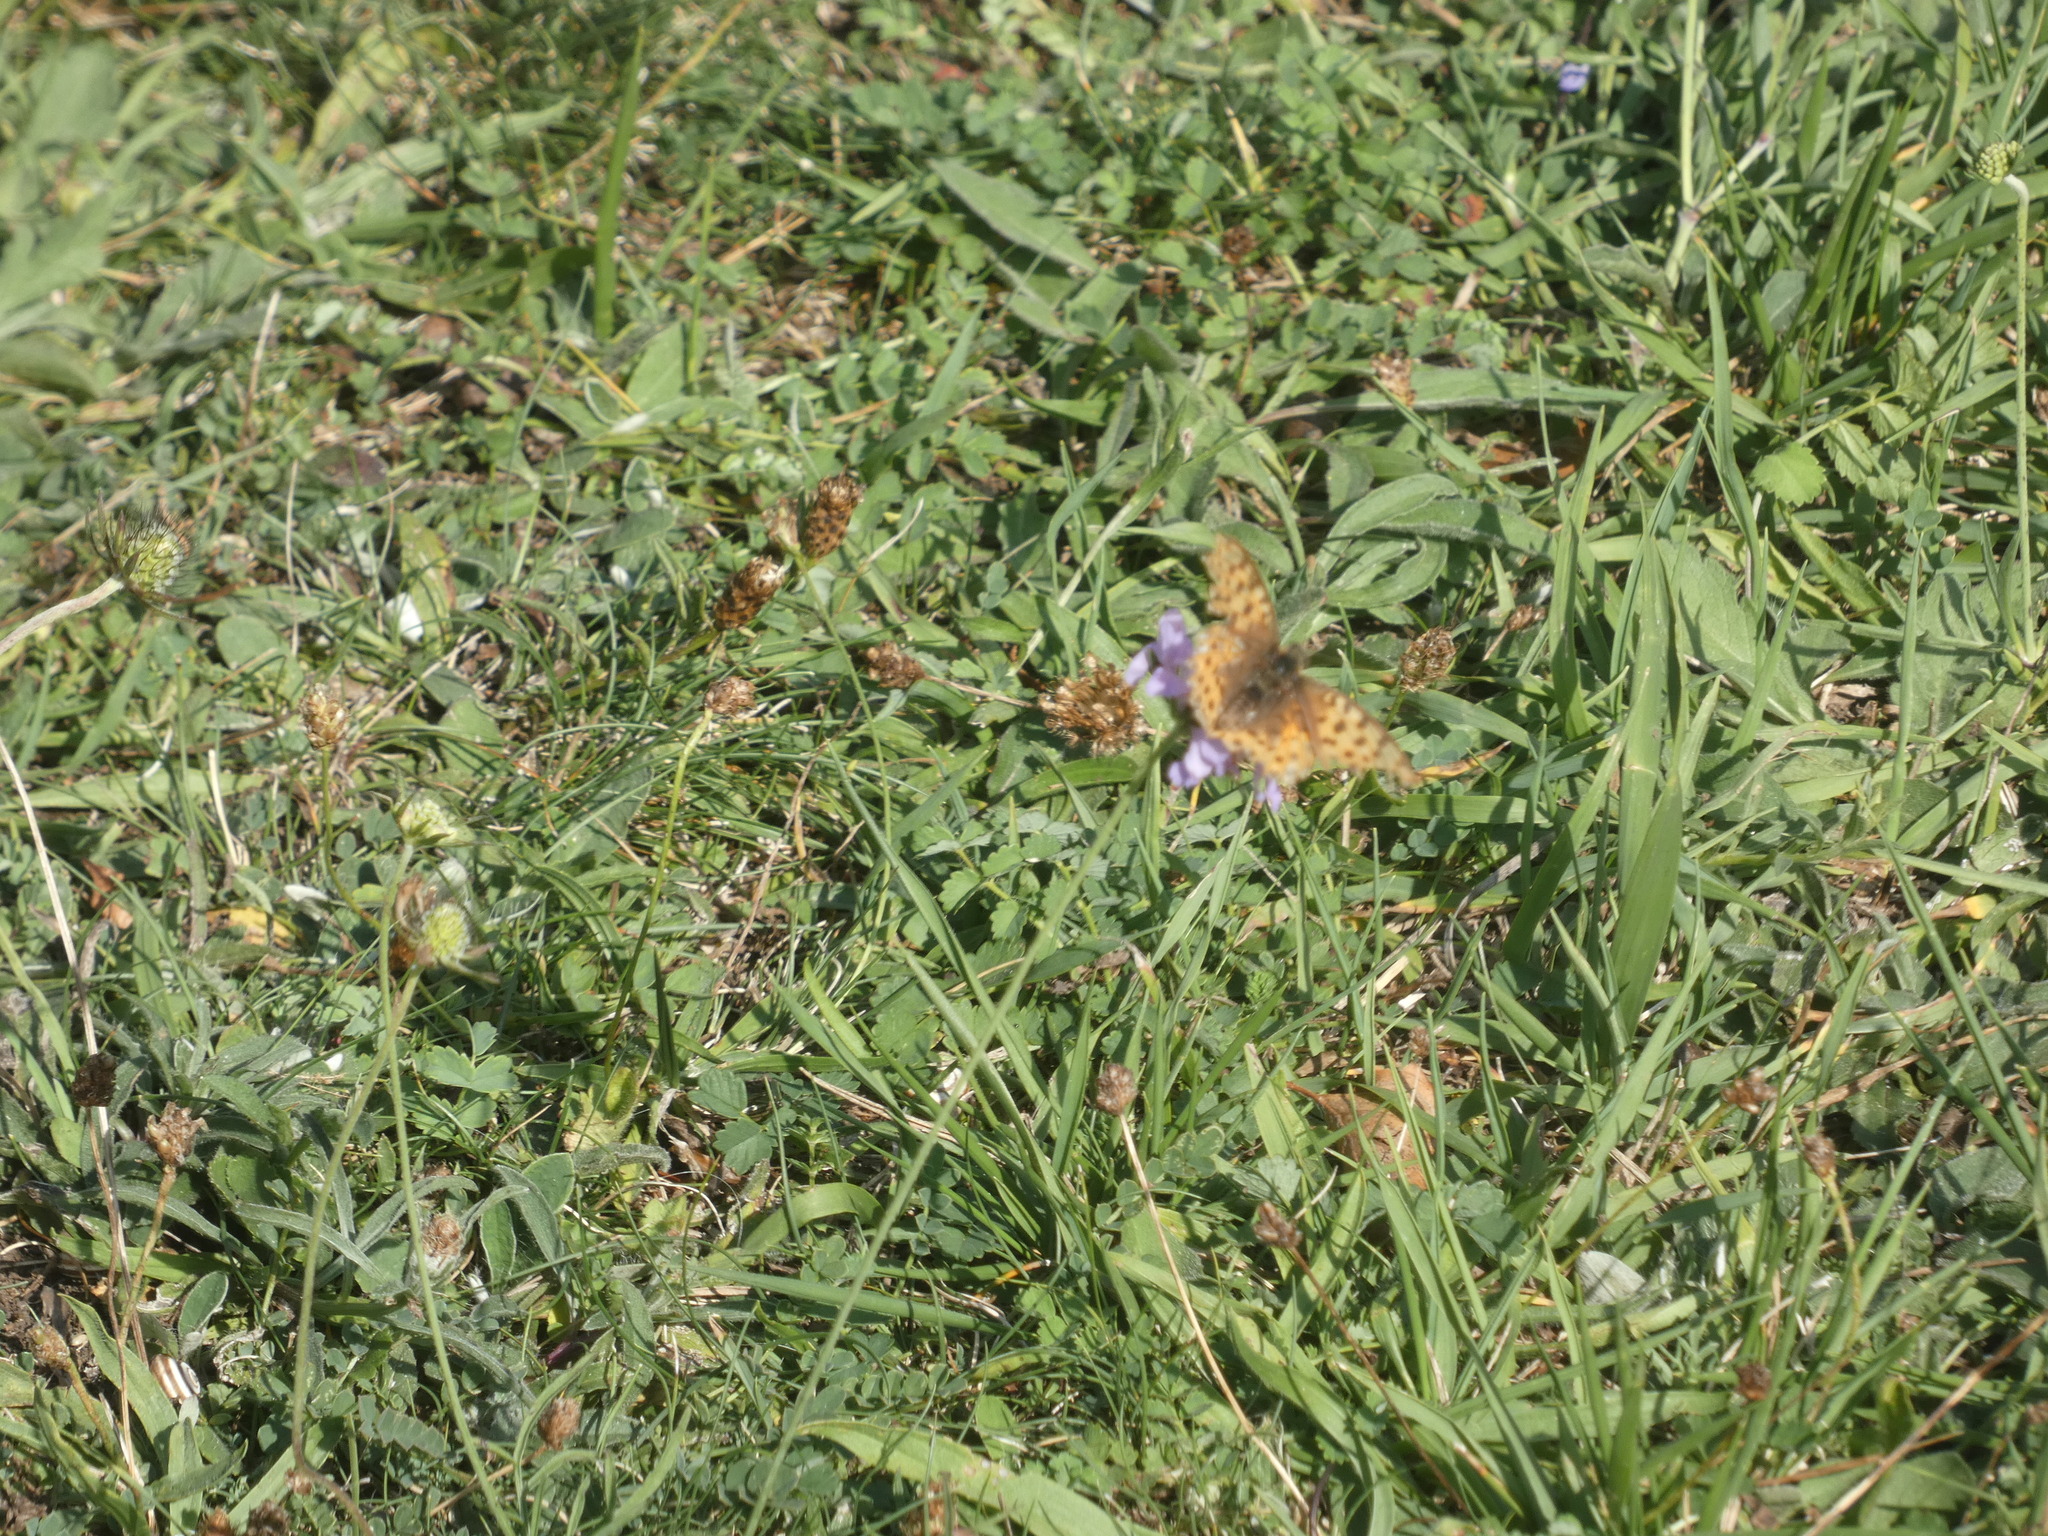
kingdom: Animalia
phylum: Arthropoda
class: Insecta
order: Lepidoptera
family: Nymphalidae
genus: Issoria
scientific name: Issoria lathonia
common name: Queen of spain fritillary
